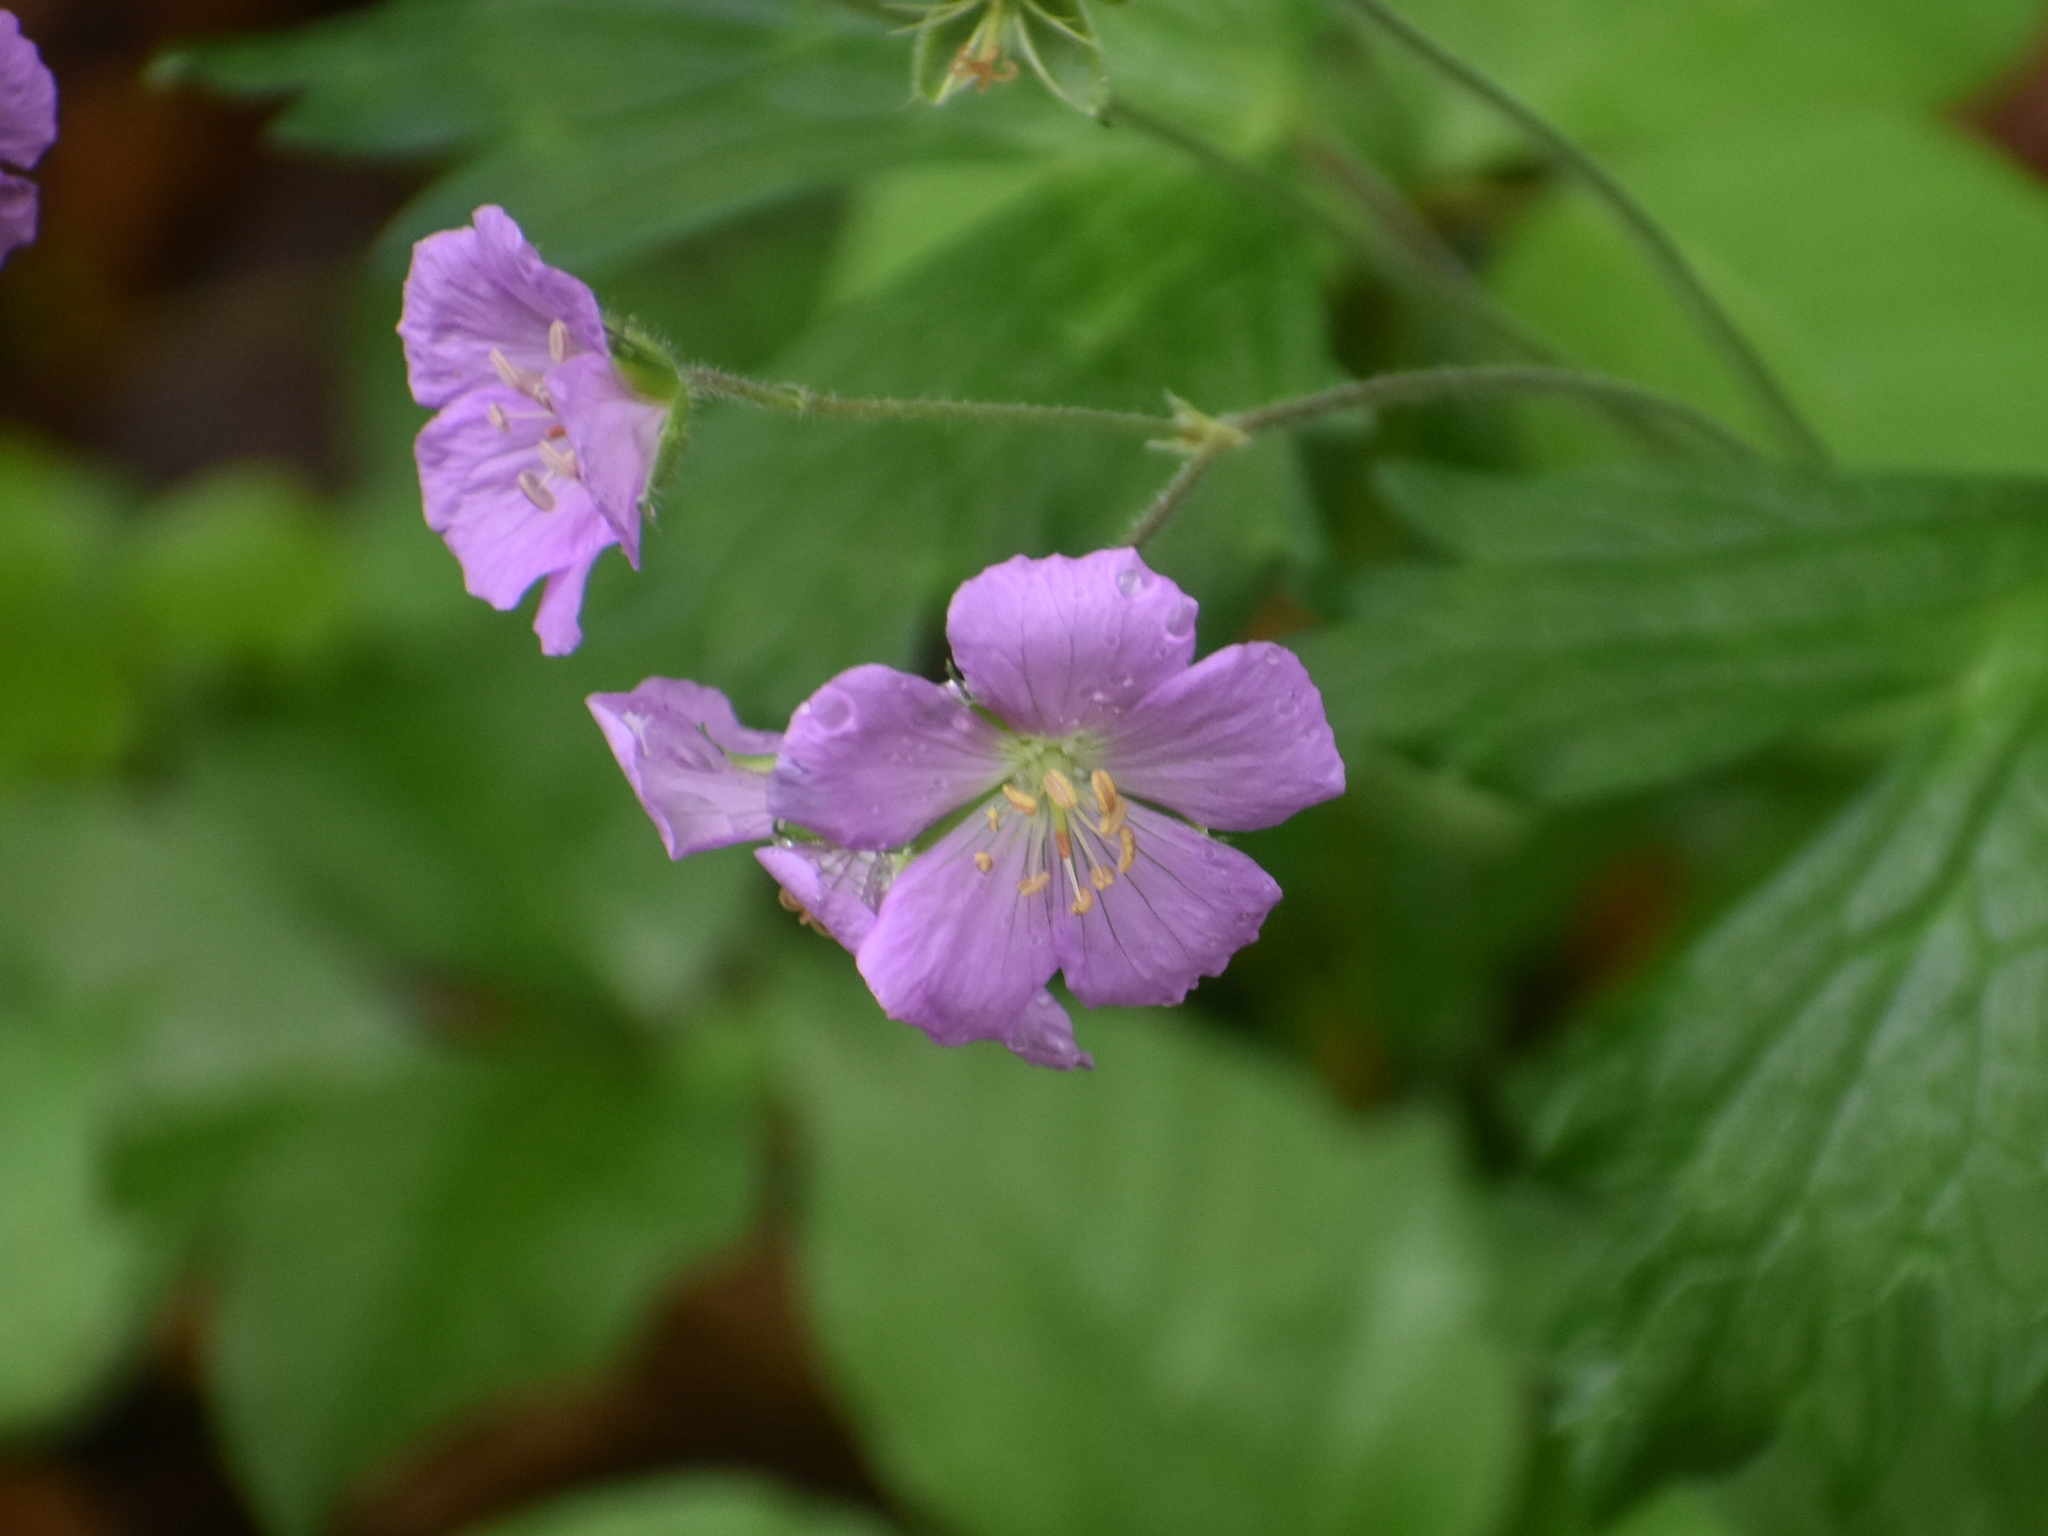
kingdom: Plantae
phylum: Tracheophyta
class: Magnoliopsida
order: Geraniales
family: Geraniaceae
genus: Geranium
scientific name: Geranium maculatum
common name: Spotted geranium
